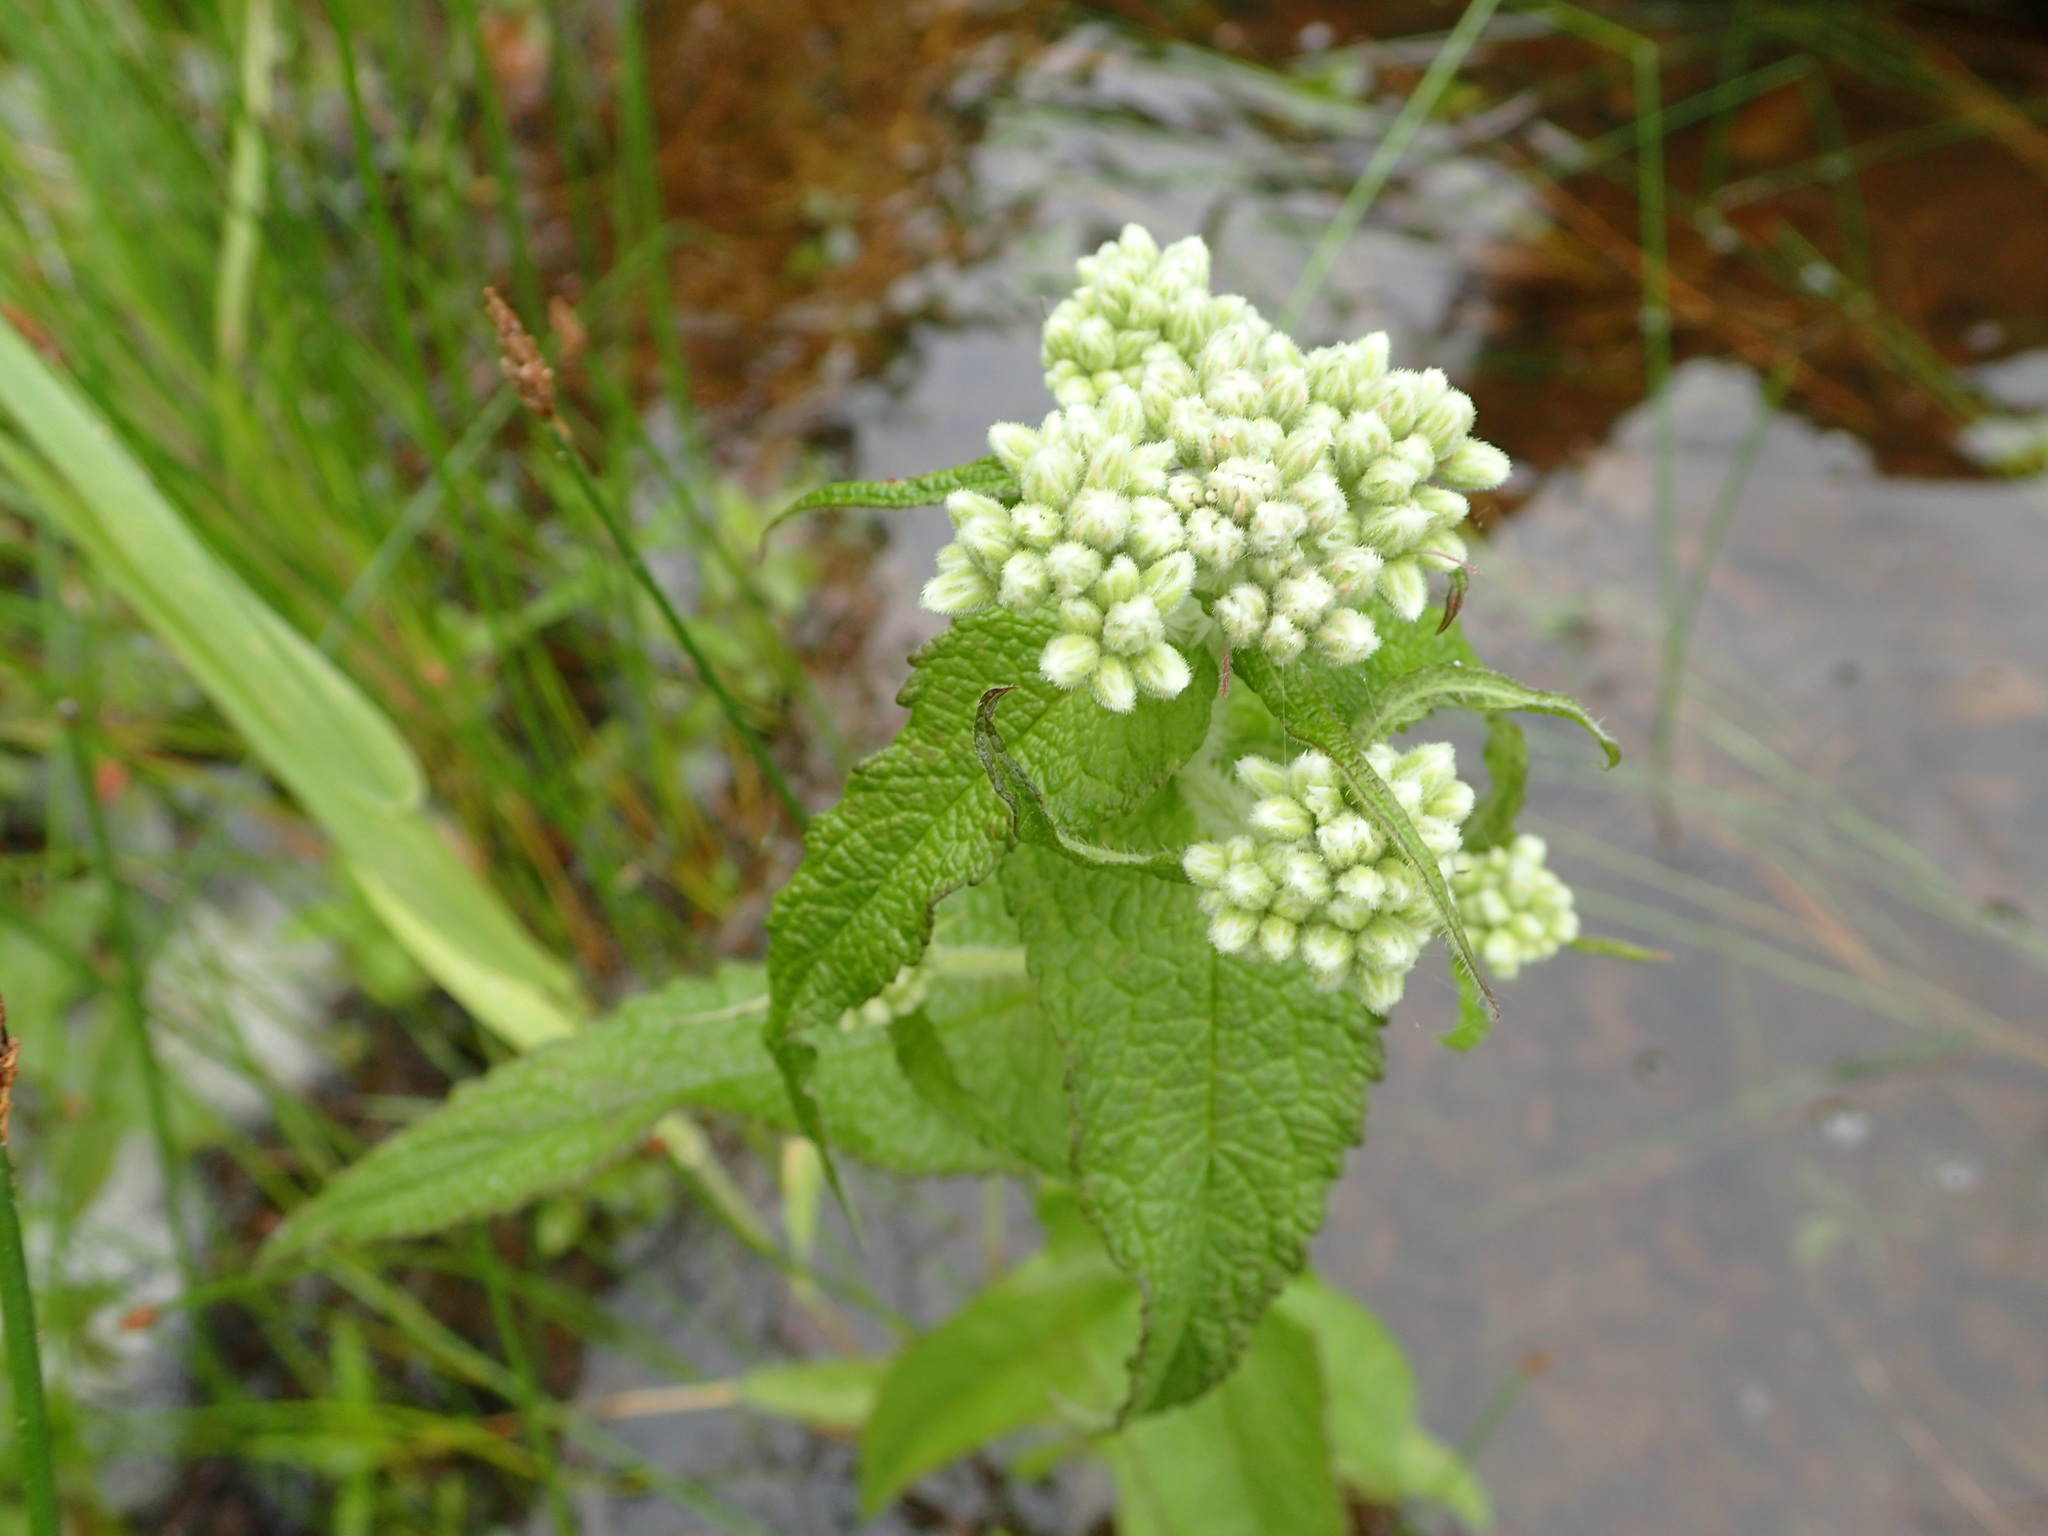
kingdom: Plantae
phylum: Tracheophyta
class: Magnoliopsida
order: Asterales
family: Asteraceae
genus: Eupatorium
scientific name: Eupatorium perfoliatum
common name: Boneset
